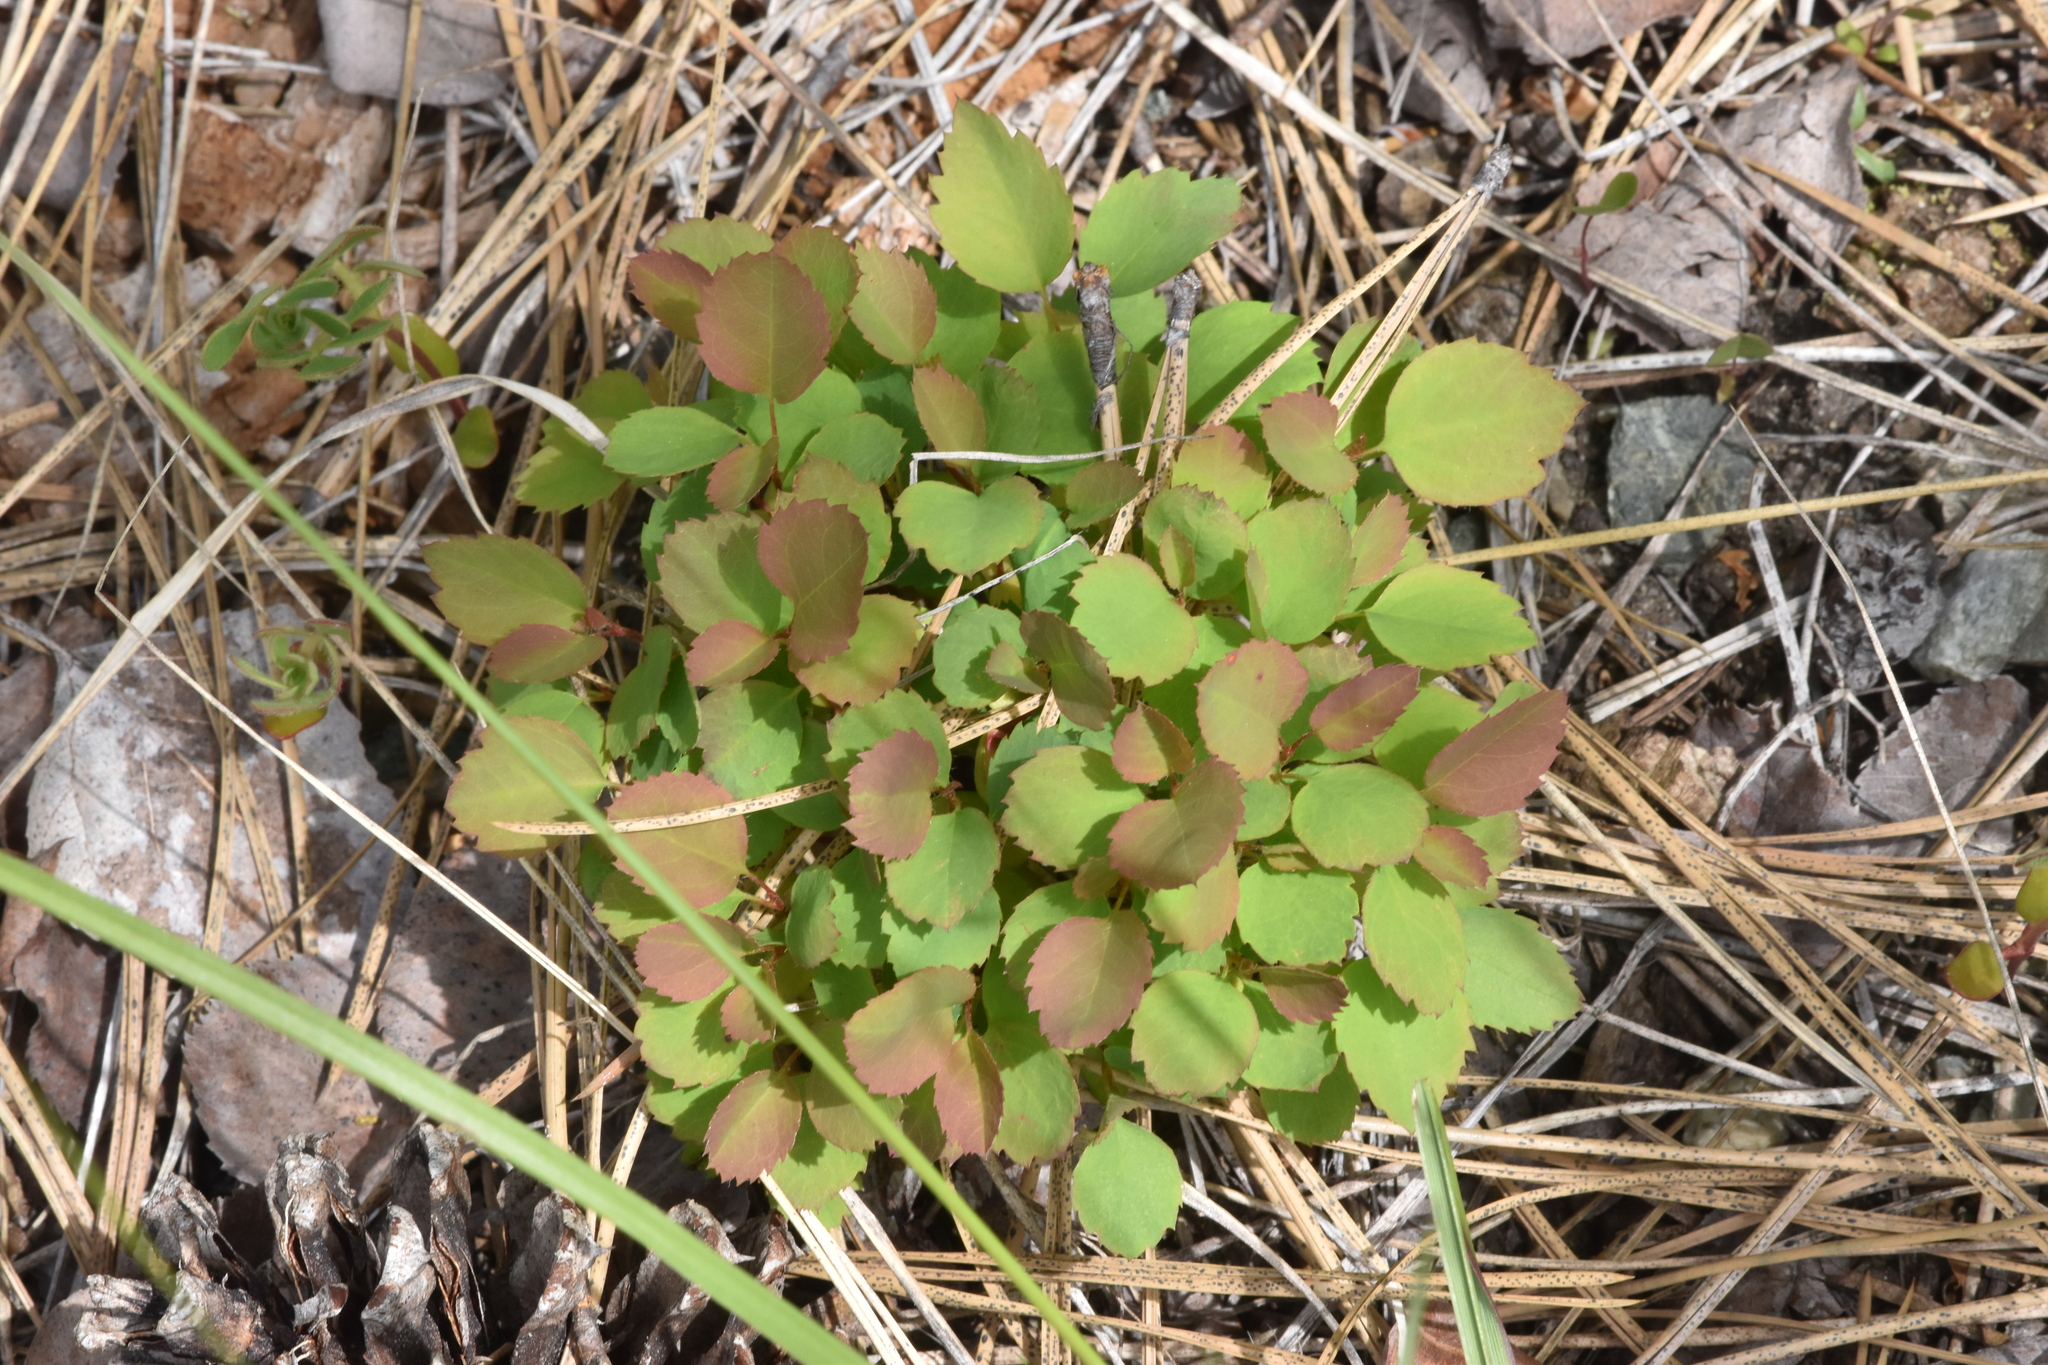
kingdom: Plantae
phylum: Tracheophyta
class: Magnoliopsida
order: Rosales
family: Rosaceae
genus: Spiraea
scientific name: Spiraea lucida
